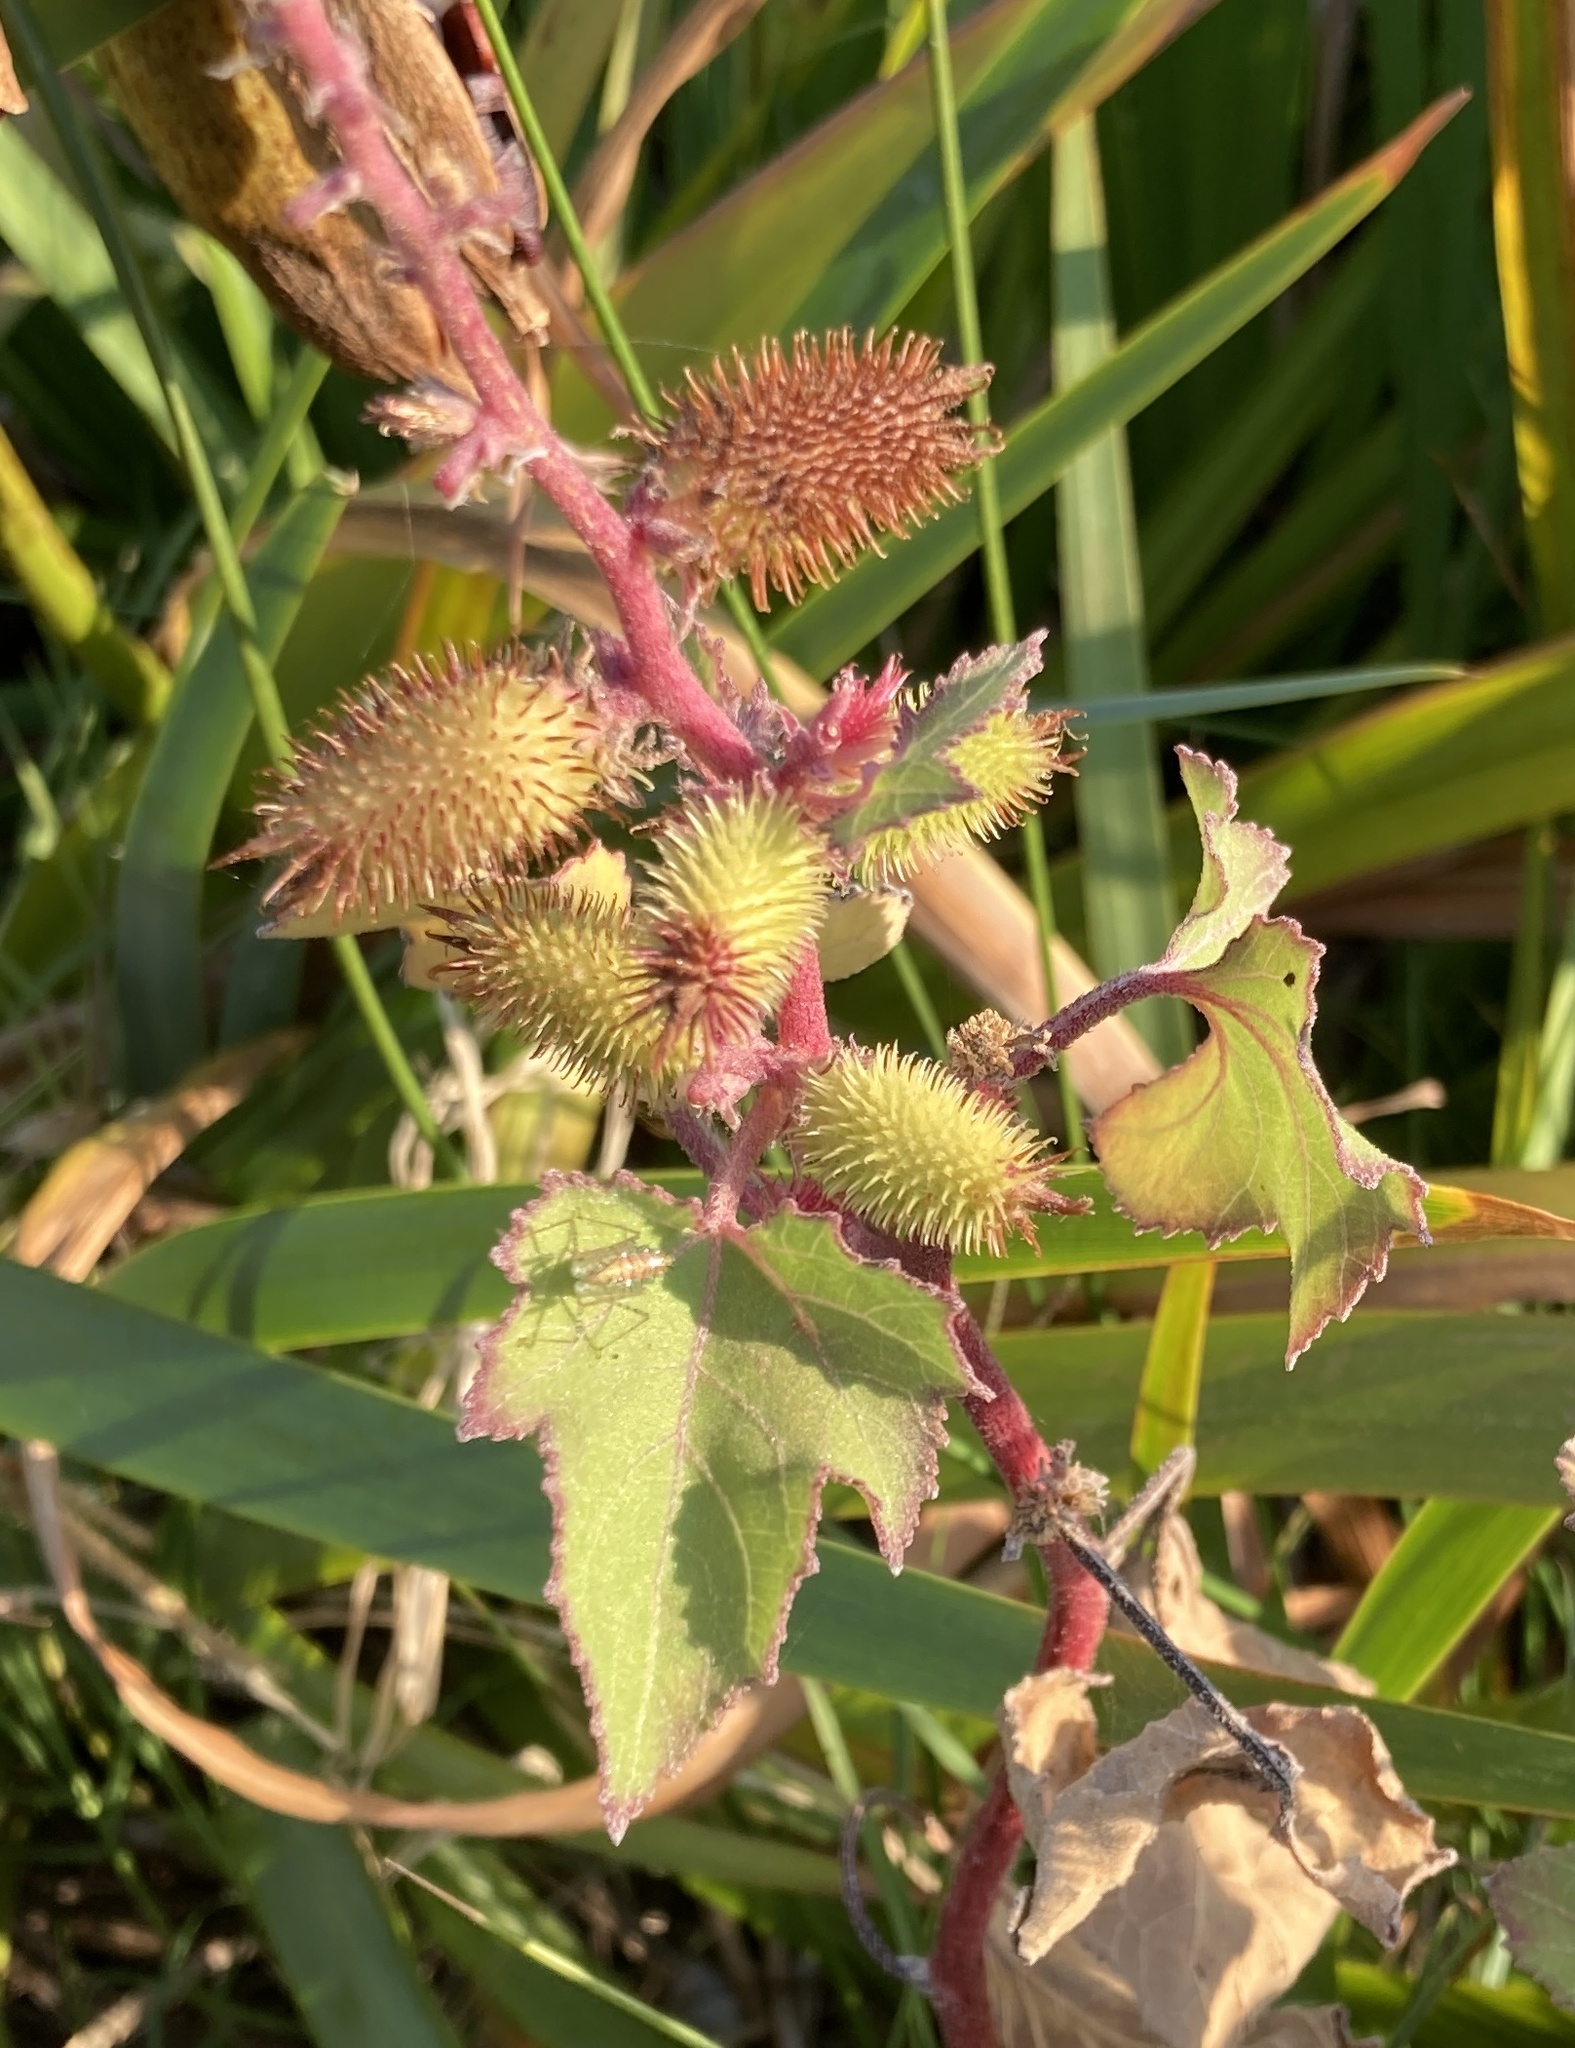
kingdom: Plantae
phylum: Tracheophyta
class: Magnoliopsida
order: Asterales
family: Asteraceae
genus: Xanthium
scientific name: Xanthium strumarium
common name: Rough cocklebur
